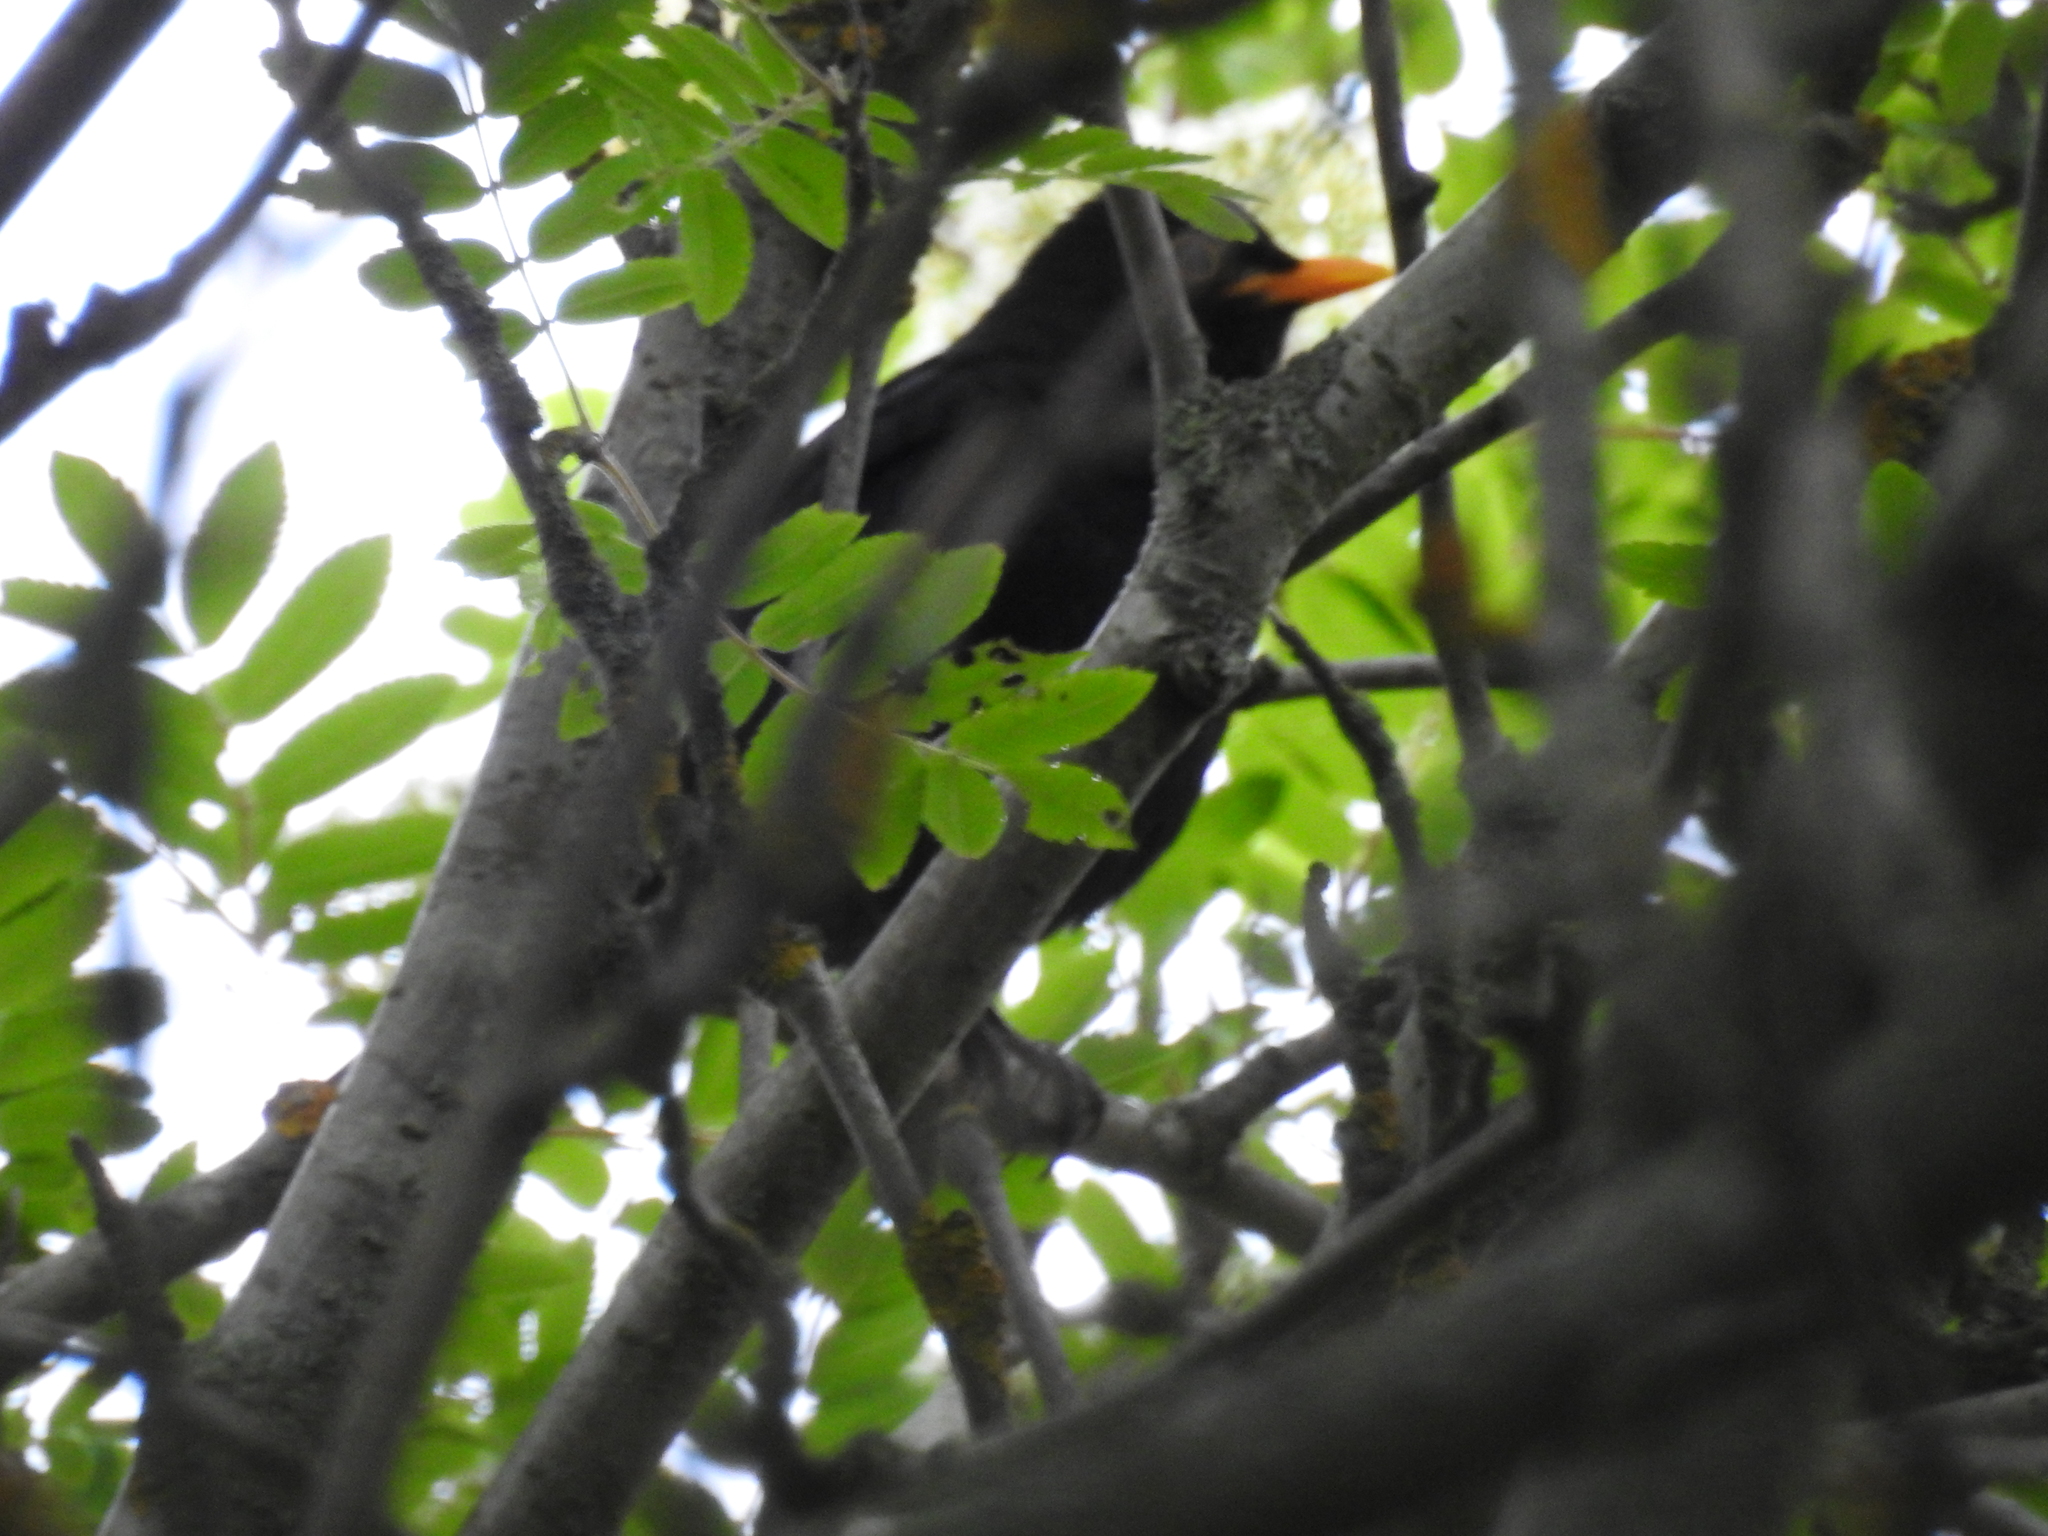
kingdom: Animalia
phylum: Chordata
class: Aves
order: Passeriformes
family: Turdidae
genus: Turdus
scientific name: Turdus merula
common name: Common blackbird
